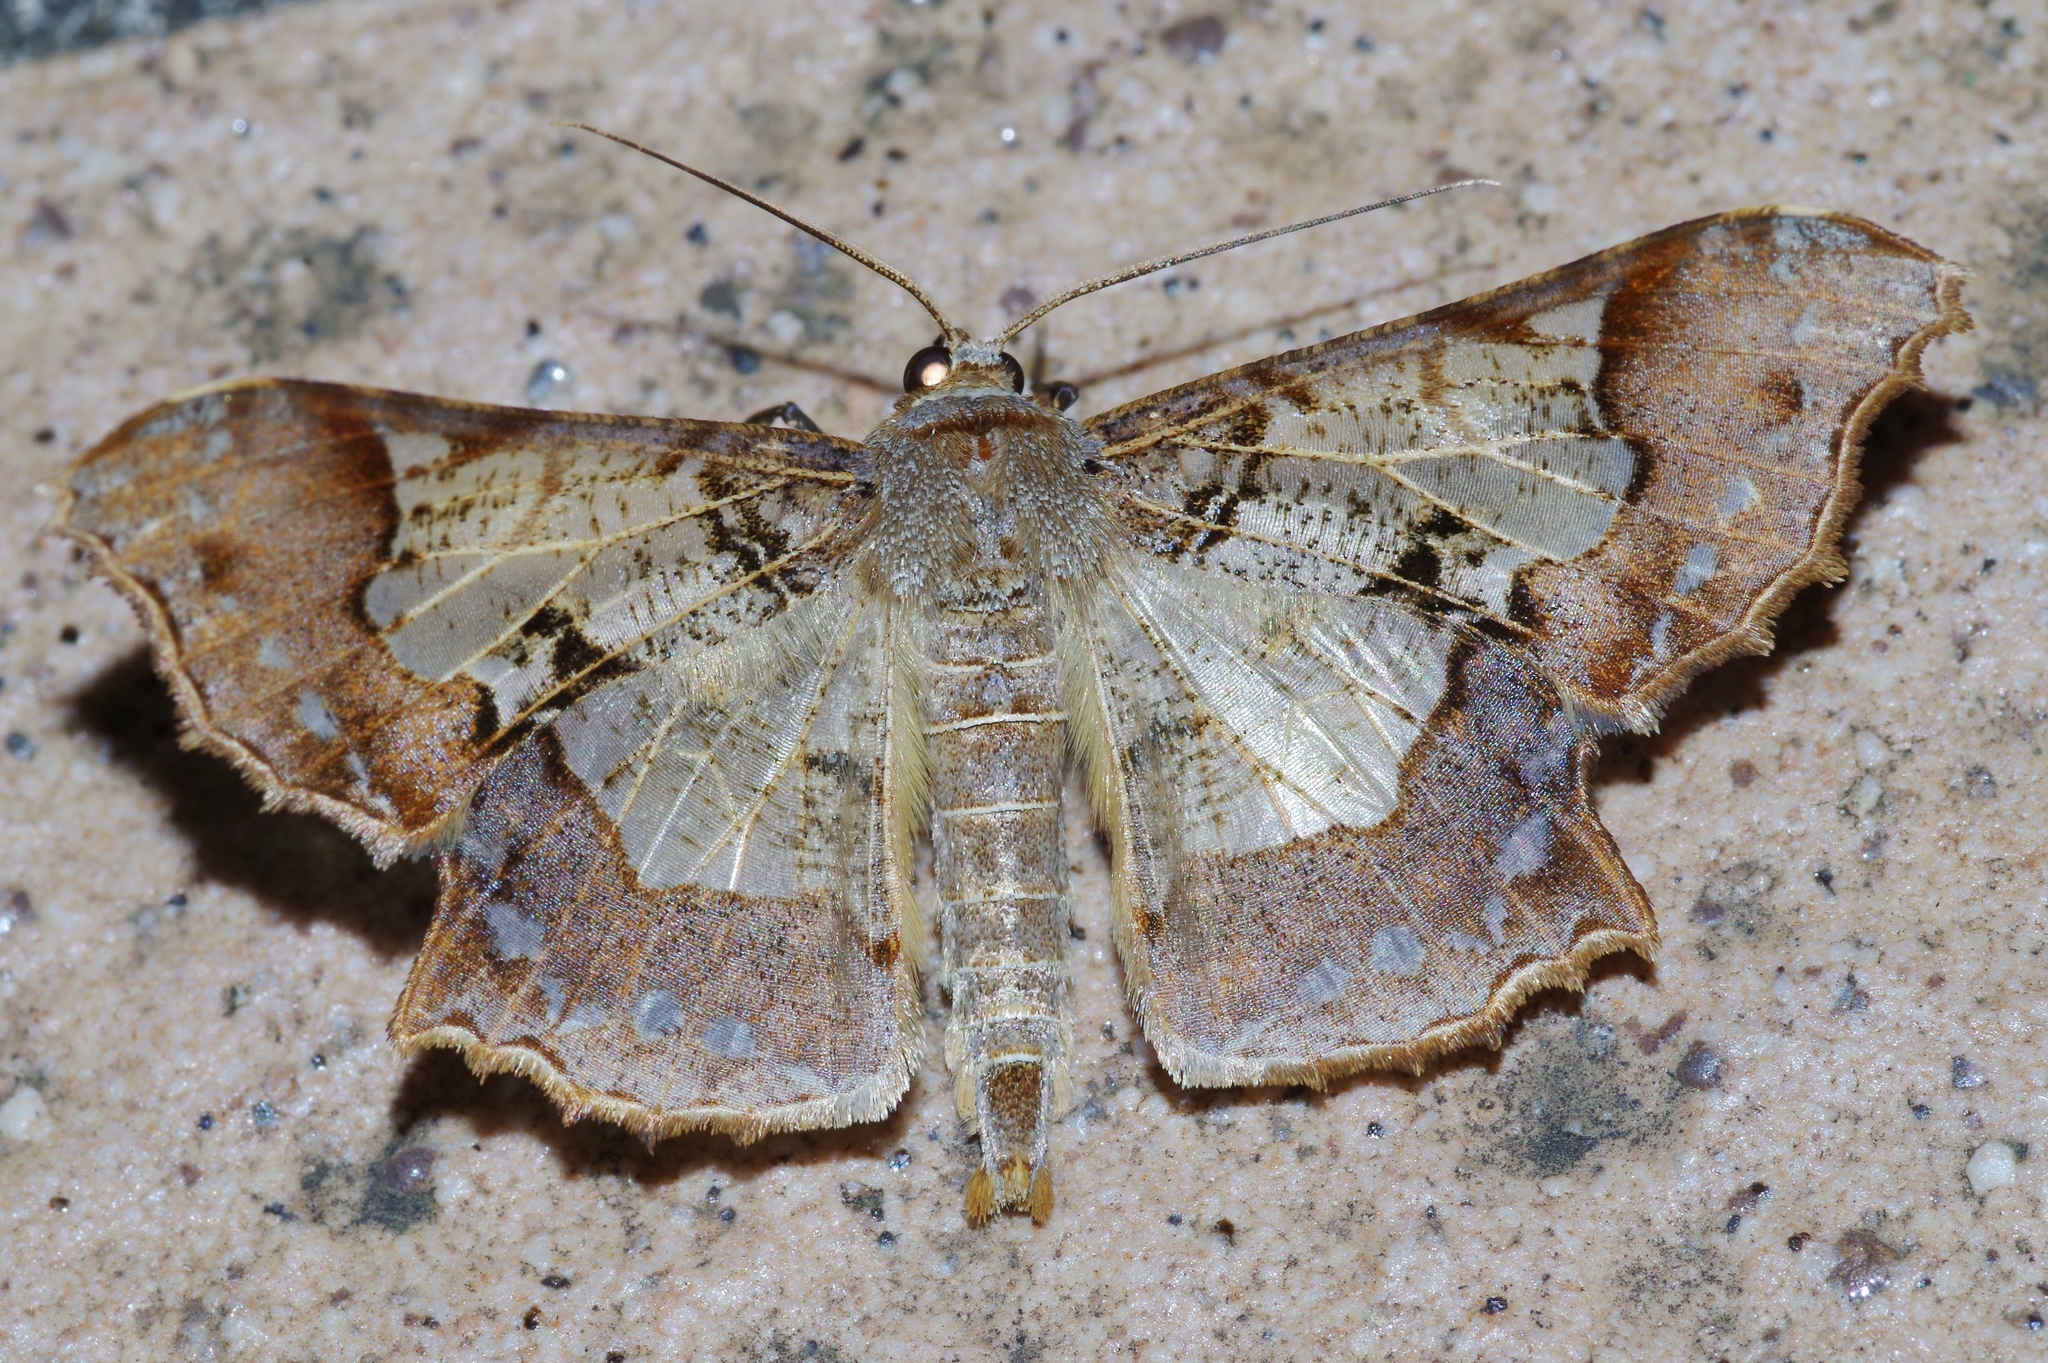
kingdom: Animalia
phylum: Arthropoda
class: Insecta
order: Lepidoptera
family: Geometridae
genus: Krananda
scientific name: Krananda semihyalina
